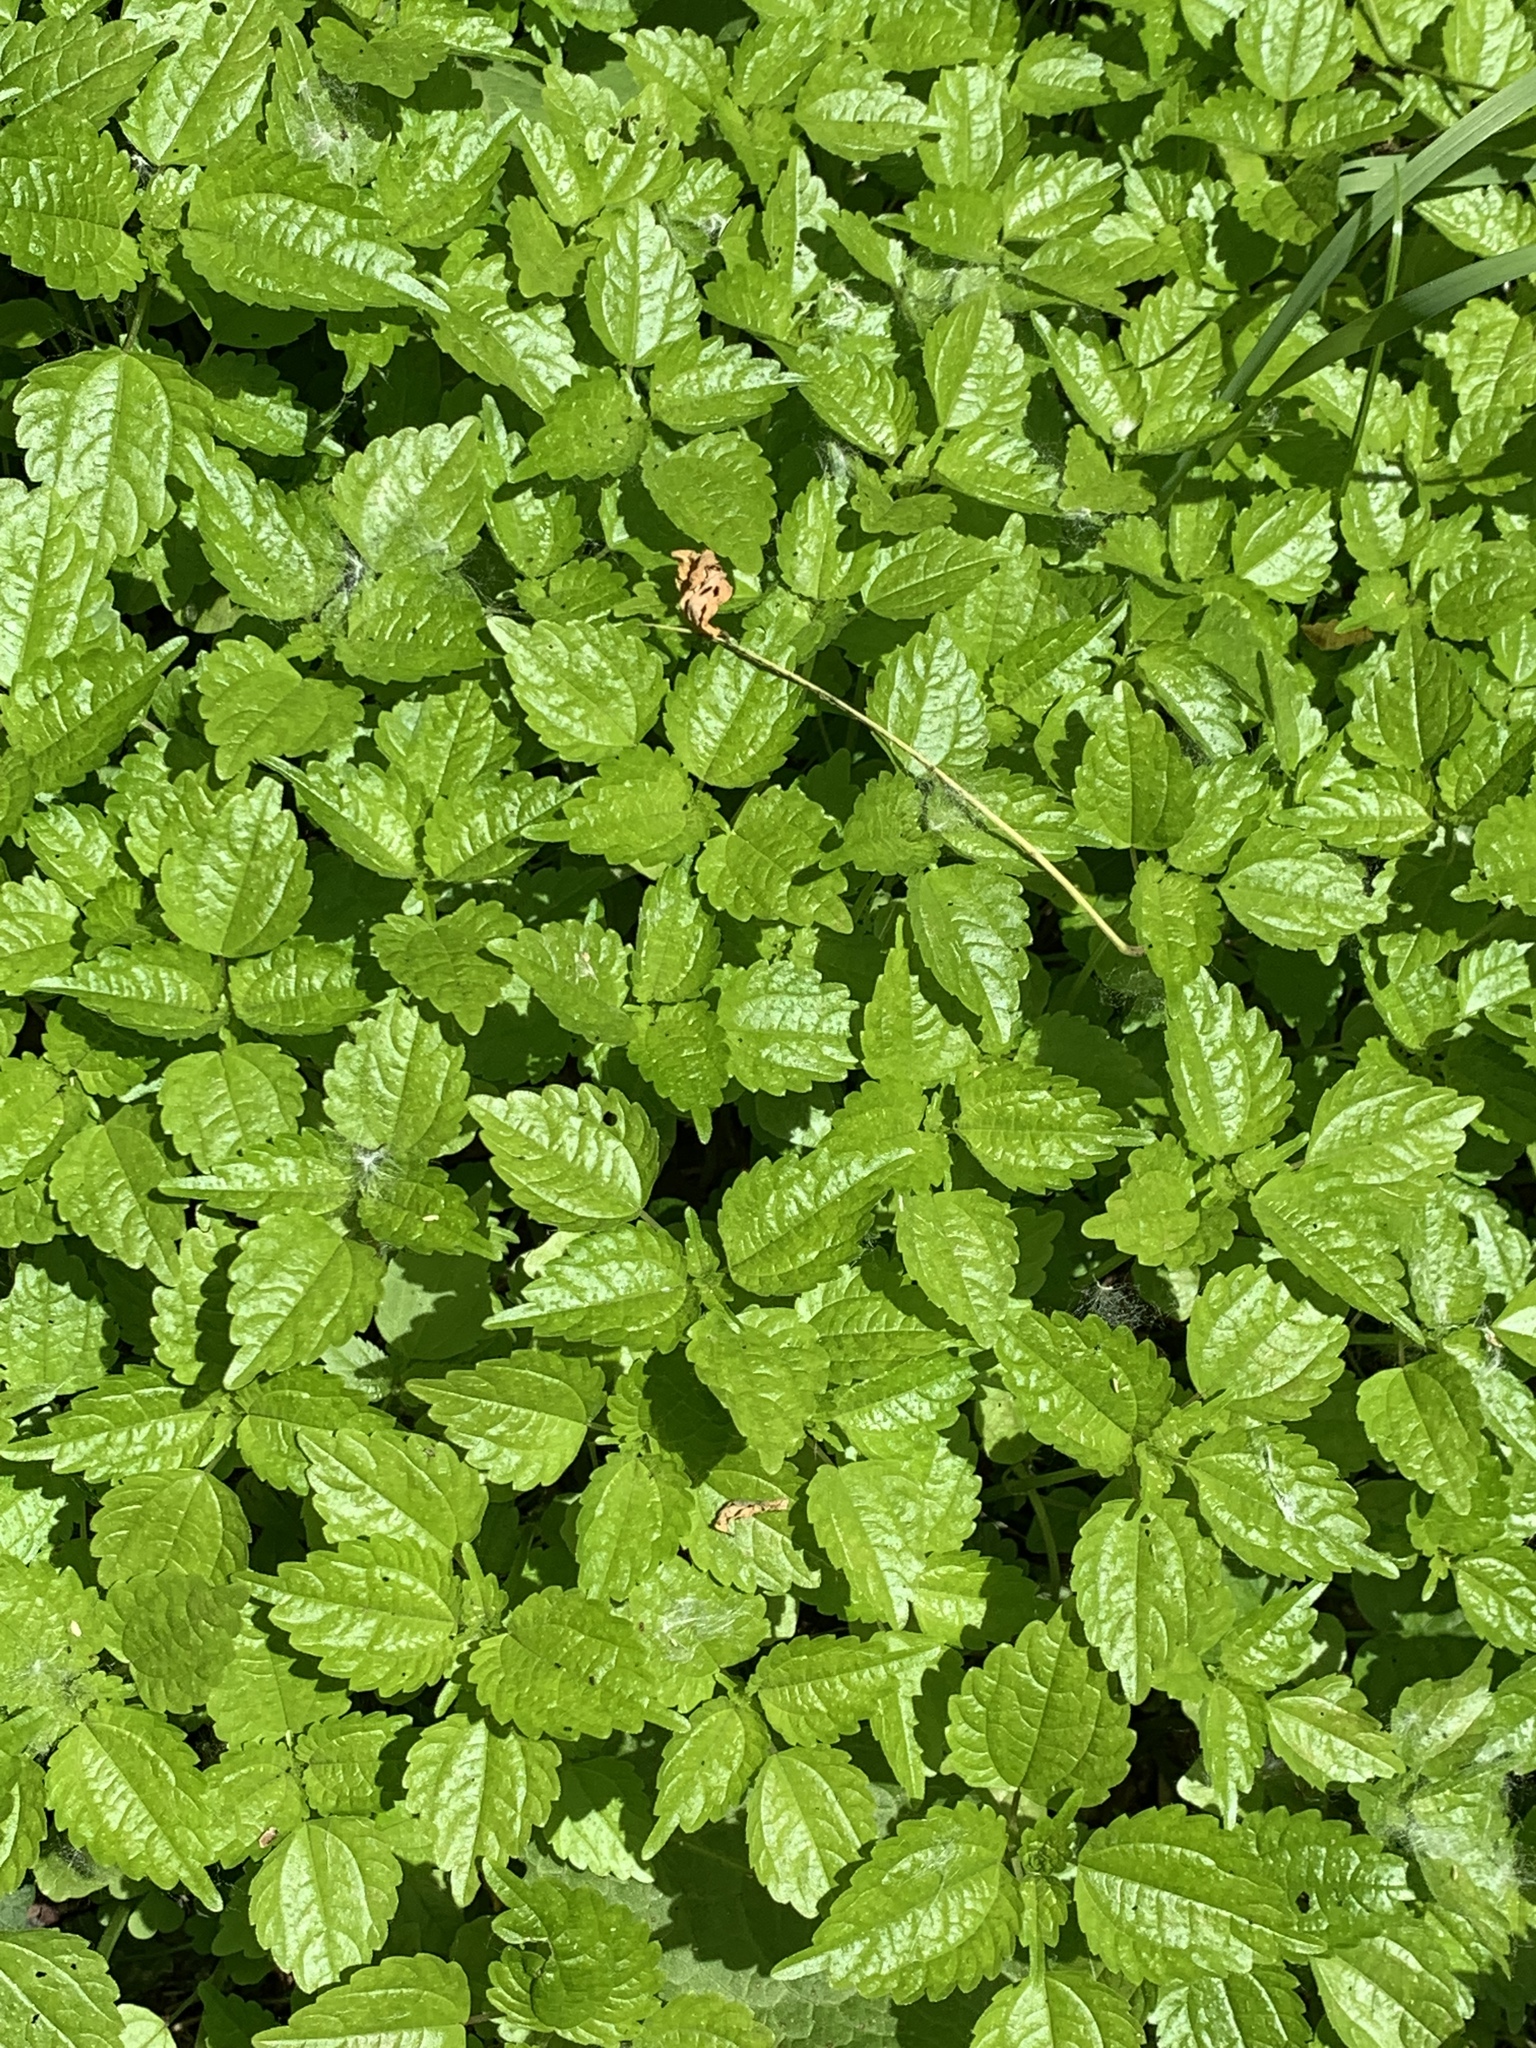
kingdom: Plantae
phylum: Tracheophyta
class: Magnoliopsida
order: Rosales
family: Urticaceae
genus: Pilea
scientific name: Pilea pumila
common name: Clearweed
